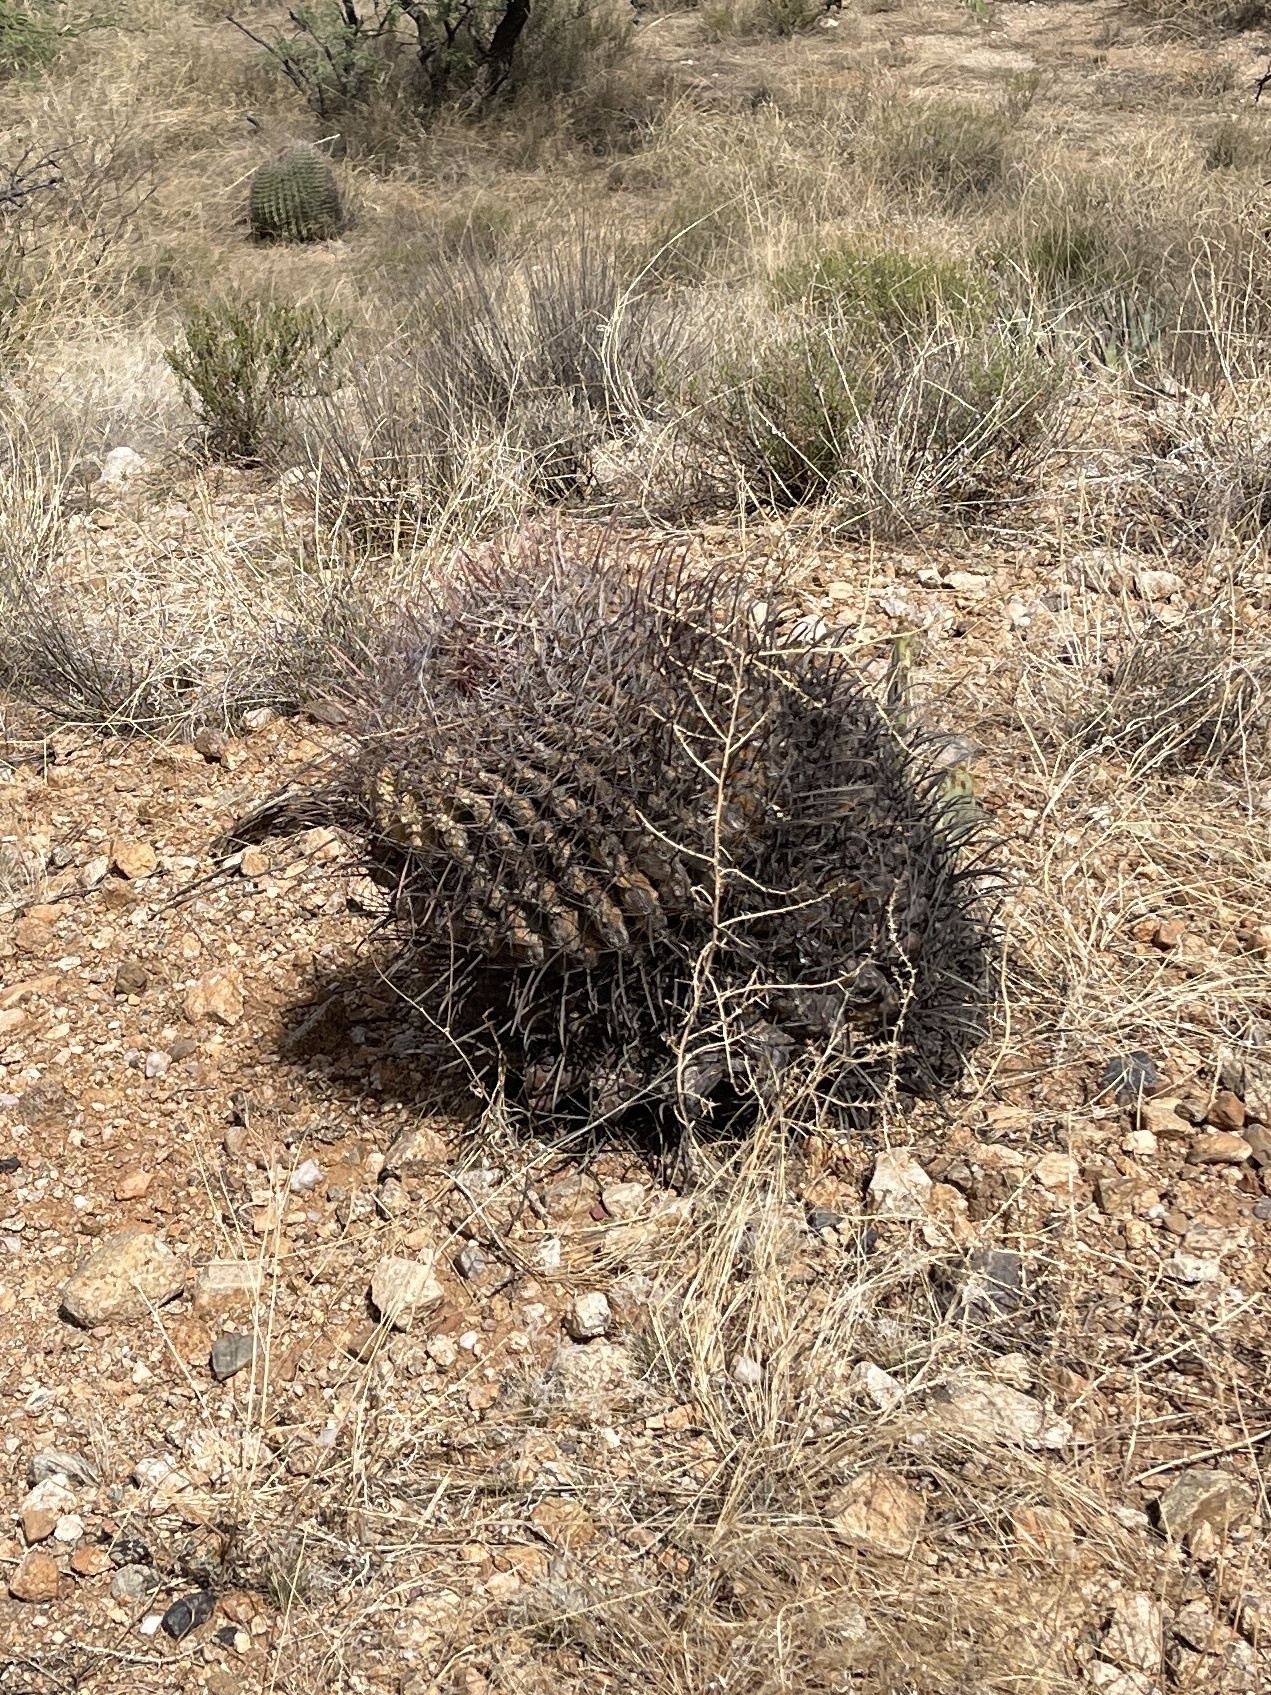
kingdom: Plantae
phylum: Tracheophyta
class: Magnoliopsida
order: Caryophyllales
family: Cactaceae
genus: Ferocactus
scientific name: Ferocactus wislizeni
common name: Candy barrel cactus
